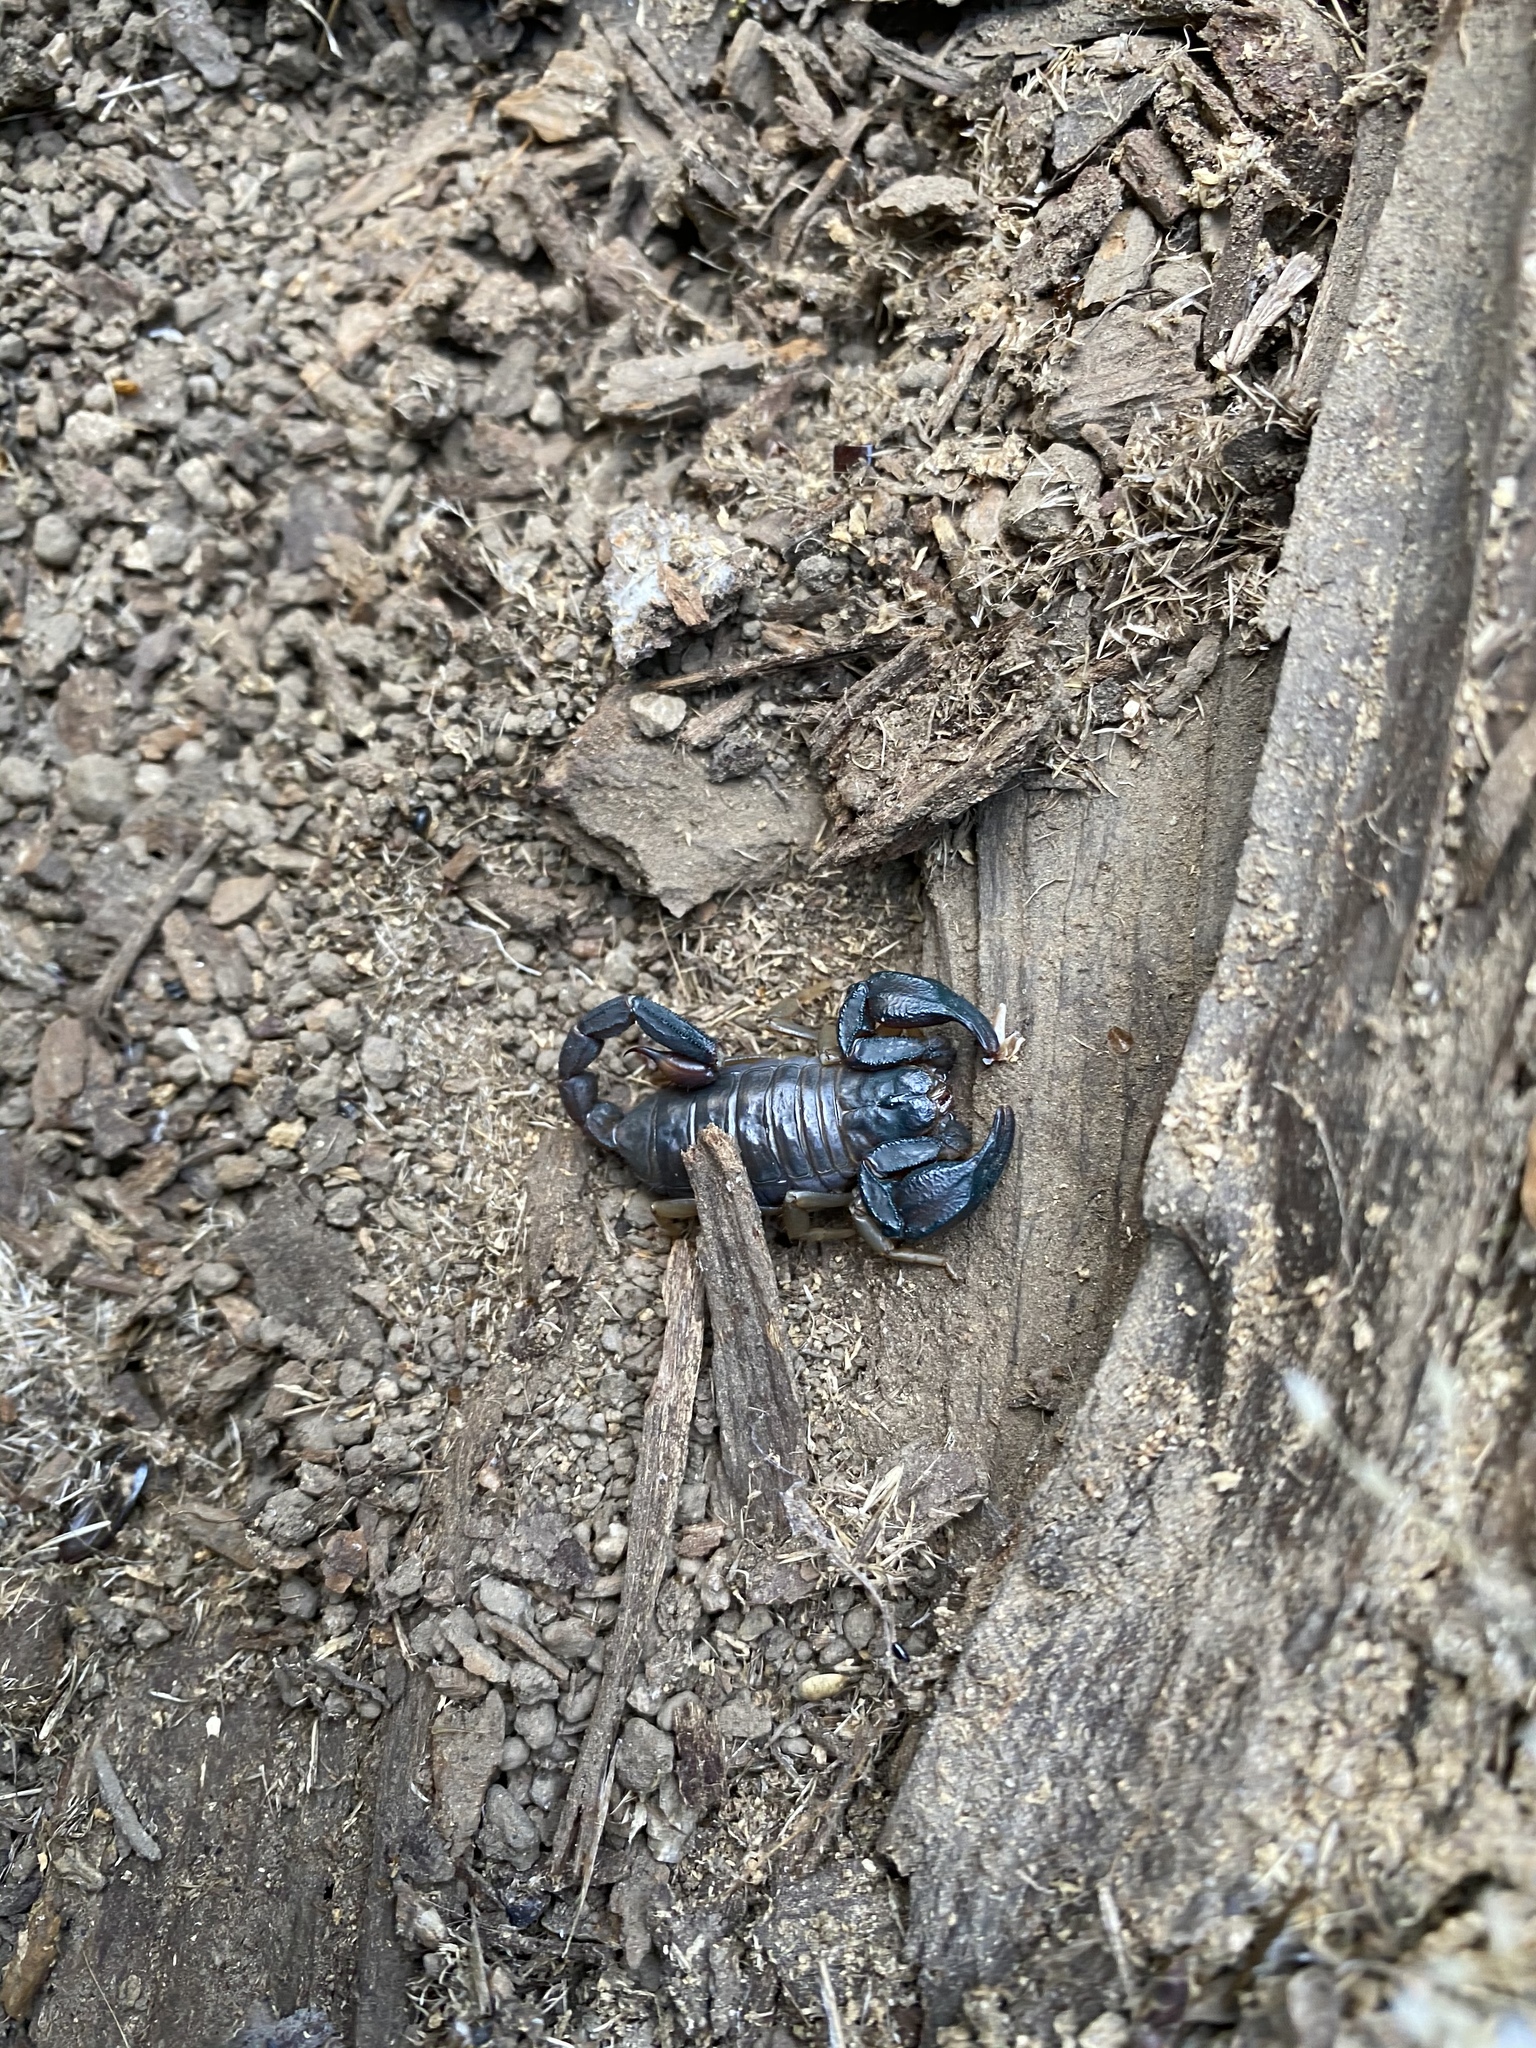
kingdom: Animalia
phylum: Arthropoda
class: Arachnida
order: Scorpiones
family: Chactidae
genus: Uroctonus
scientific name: Uroctonus mordax
